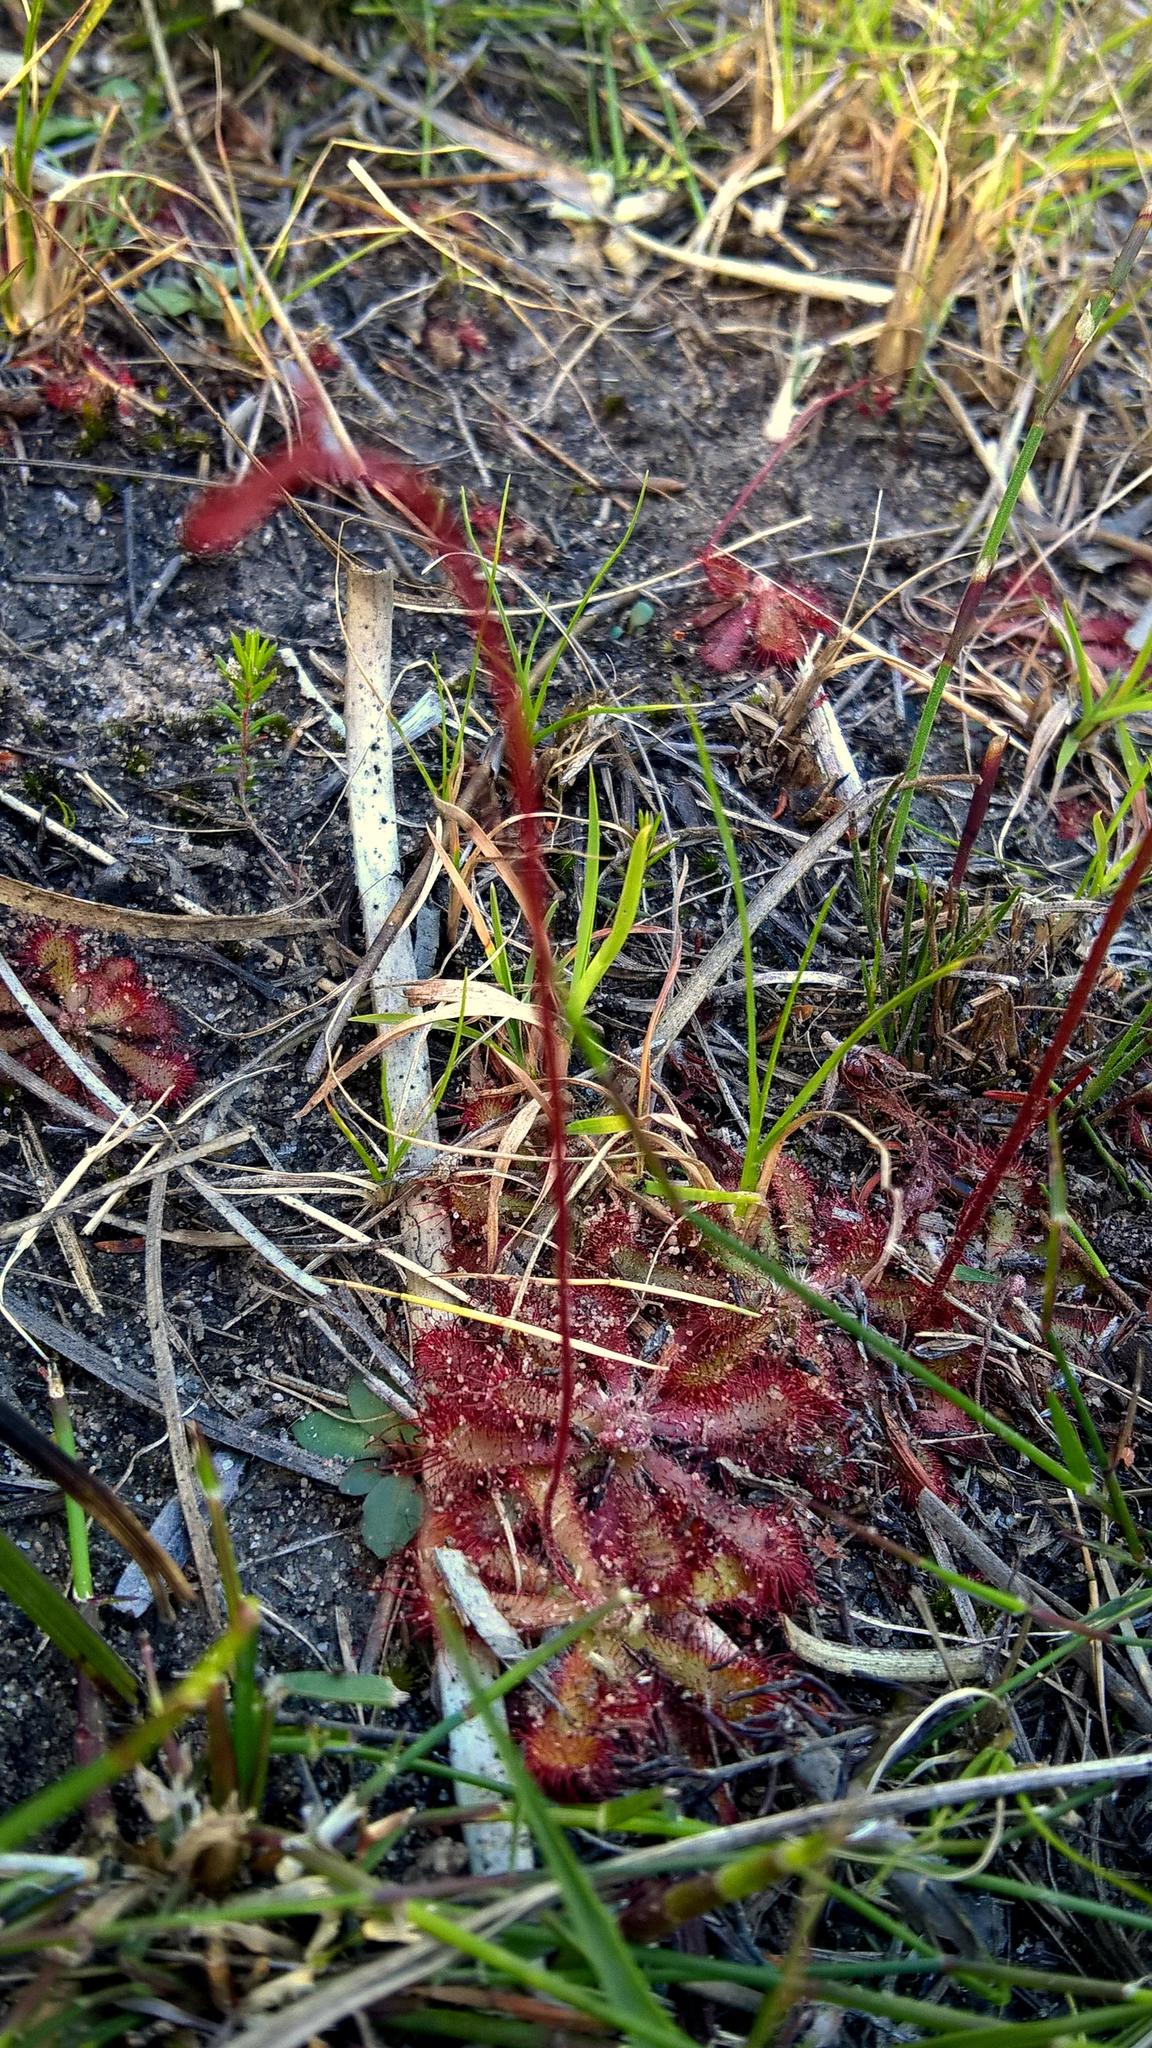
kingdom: Plantae
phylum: Tracheophyta
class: Magnoliopsida
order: Caryophyllales
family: Droseraceae
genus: Drosera
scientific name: Drosera aliciae
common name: Alice sundew
